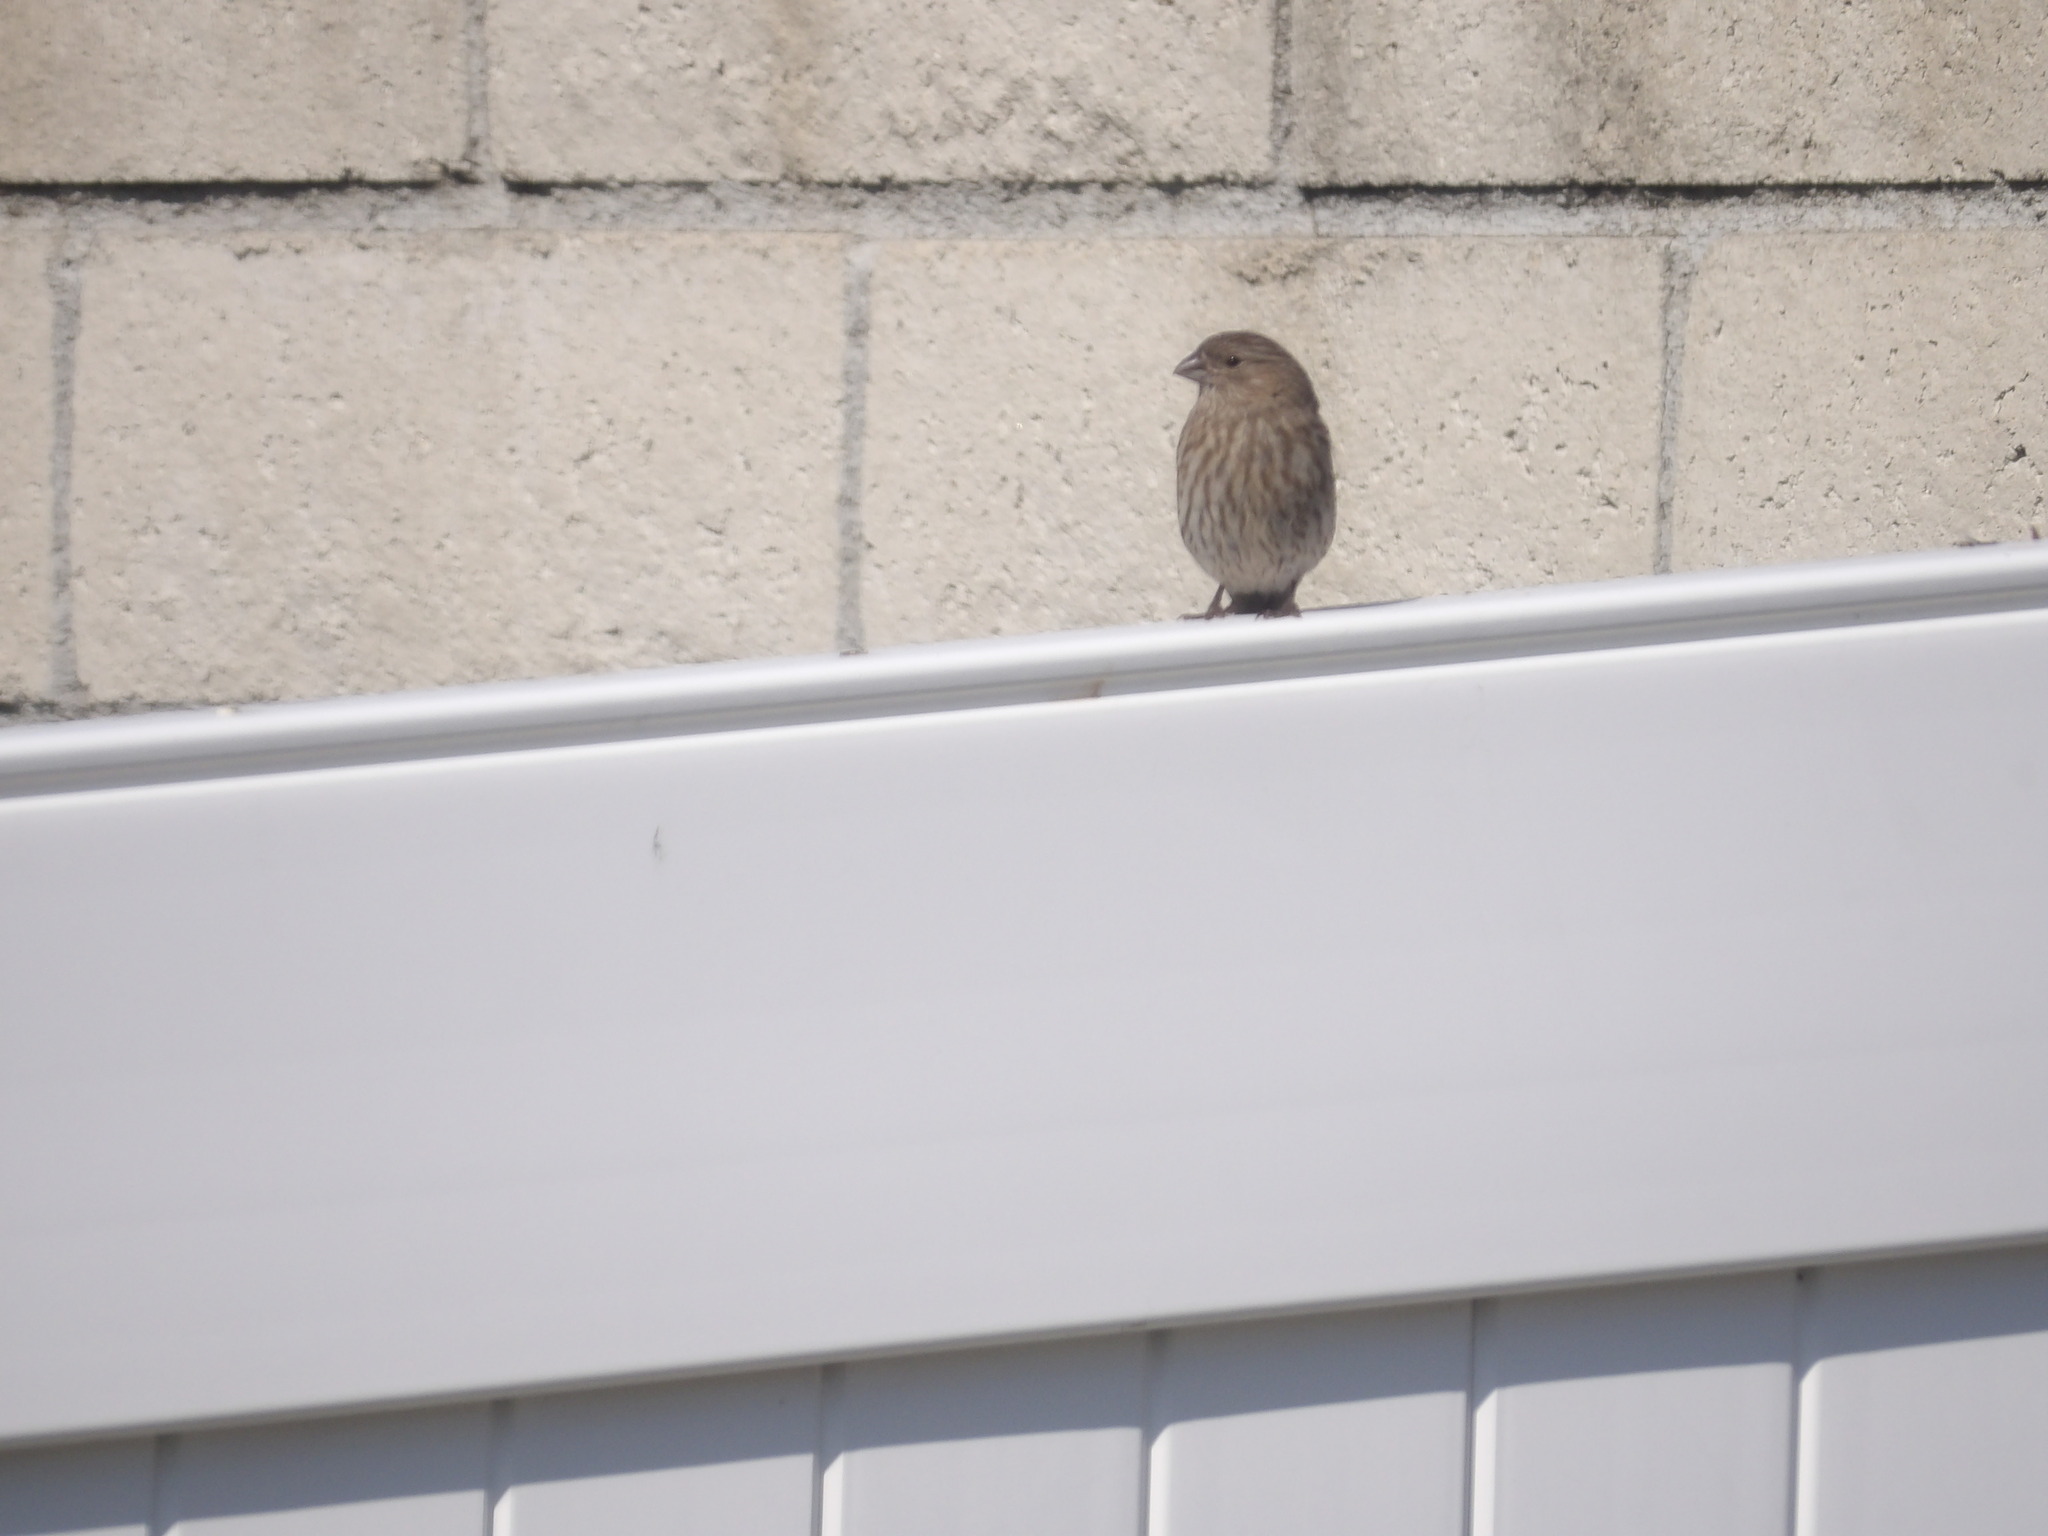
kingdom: Animalia
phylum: Chordata
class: Aves
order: Passeriformes
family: Fringillidae
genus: Haemorhous
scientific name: Haemorhous mexicanus
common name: House finch
